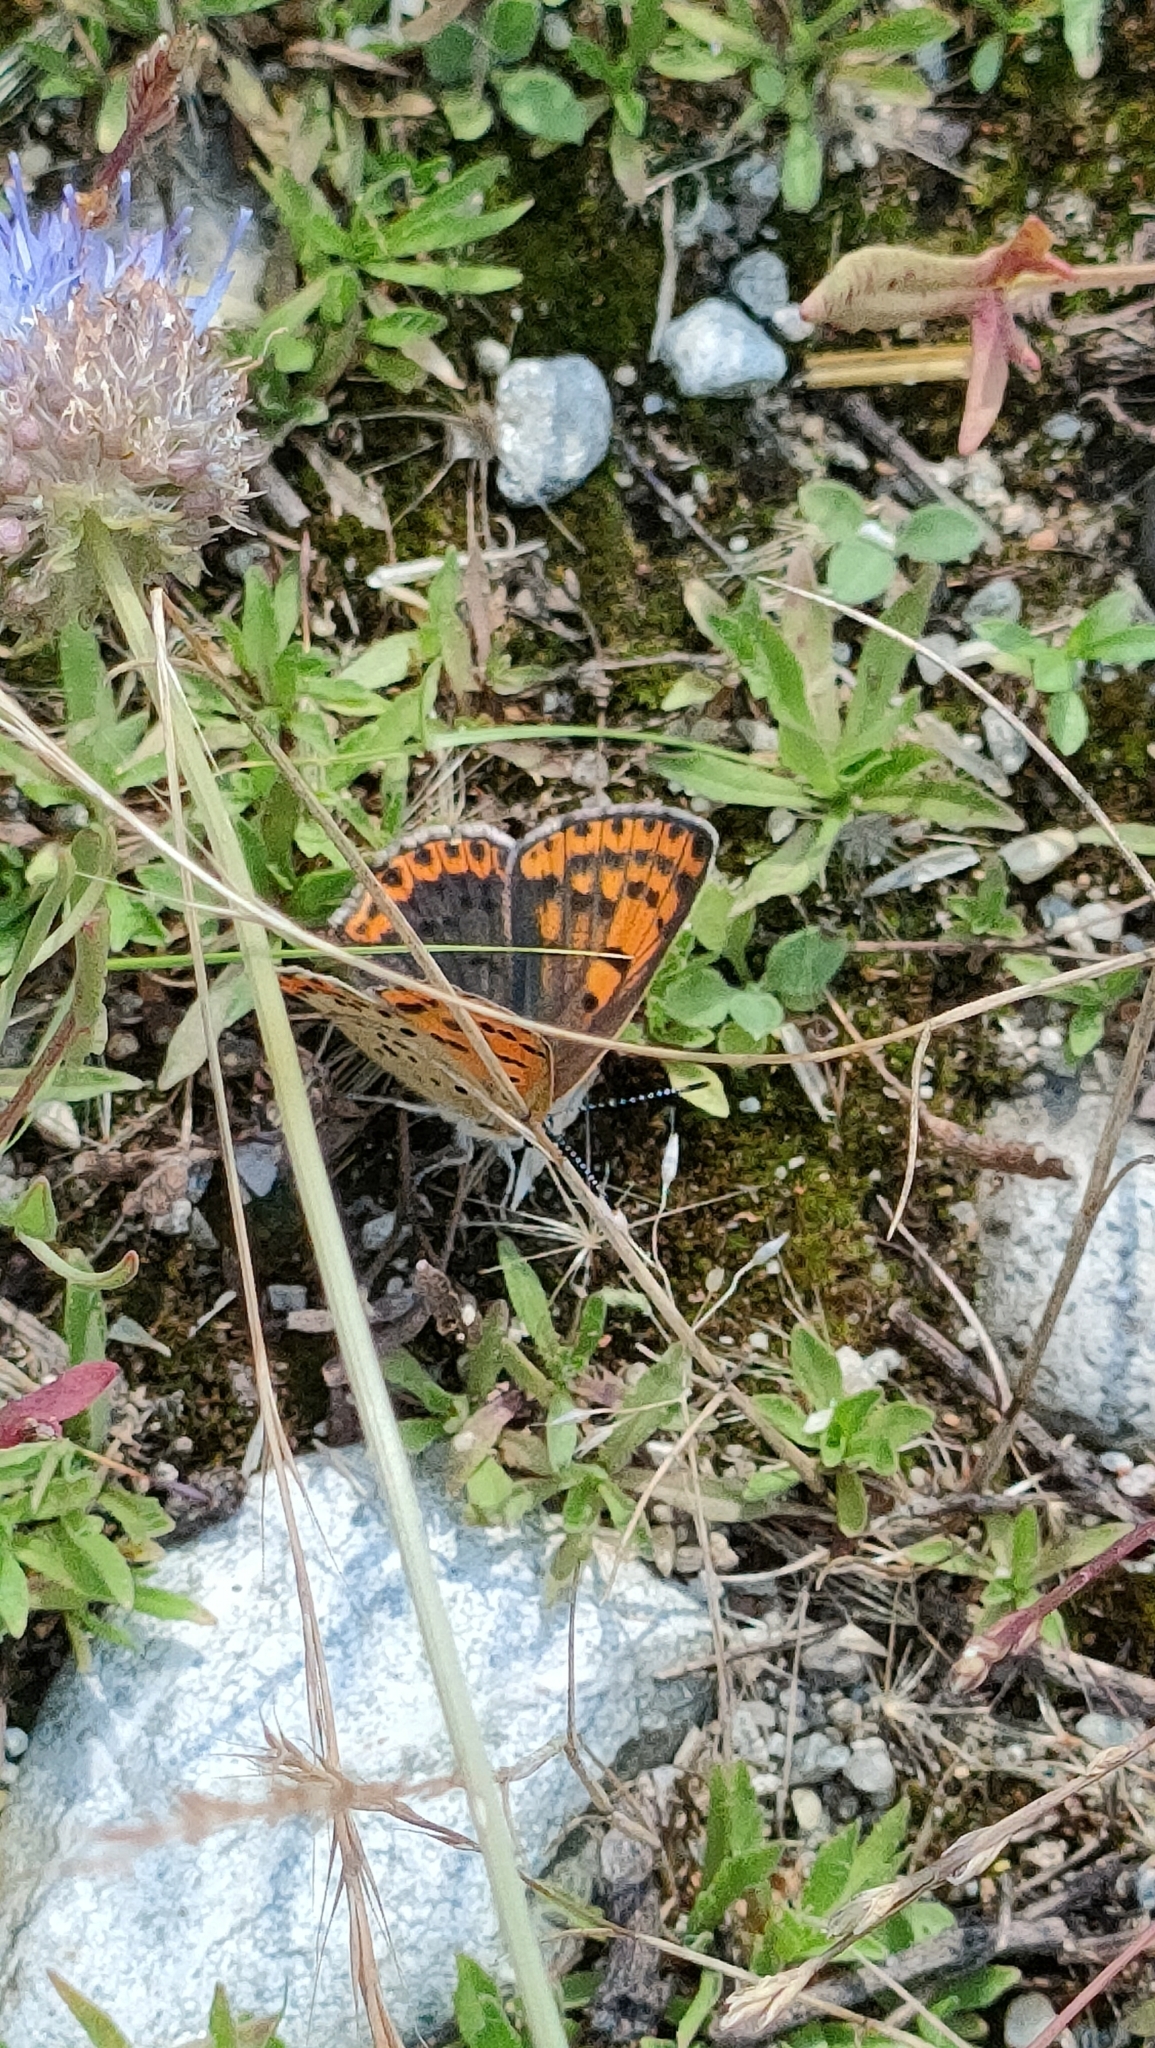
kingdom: Animalia
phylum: Arthropoda
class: Insecta
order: Lepidoptera
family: Lycaenidae
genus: Loweia
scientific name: Loweia tityrus
